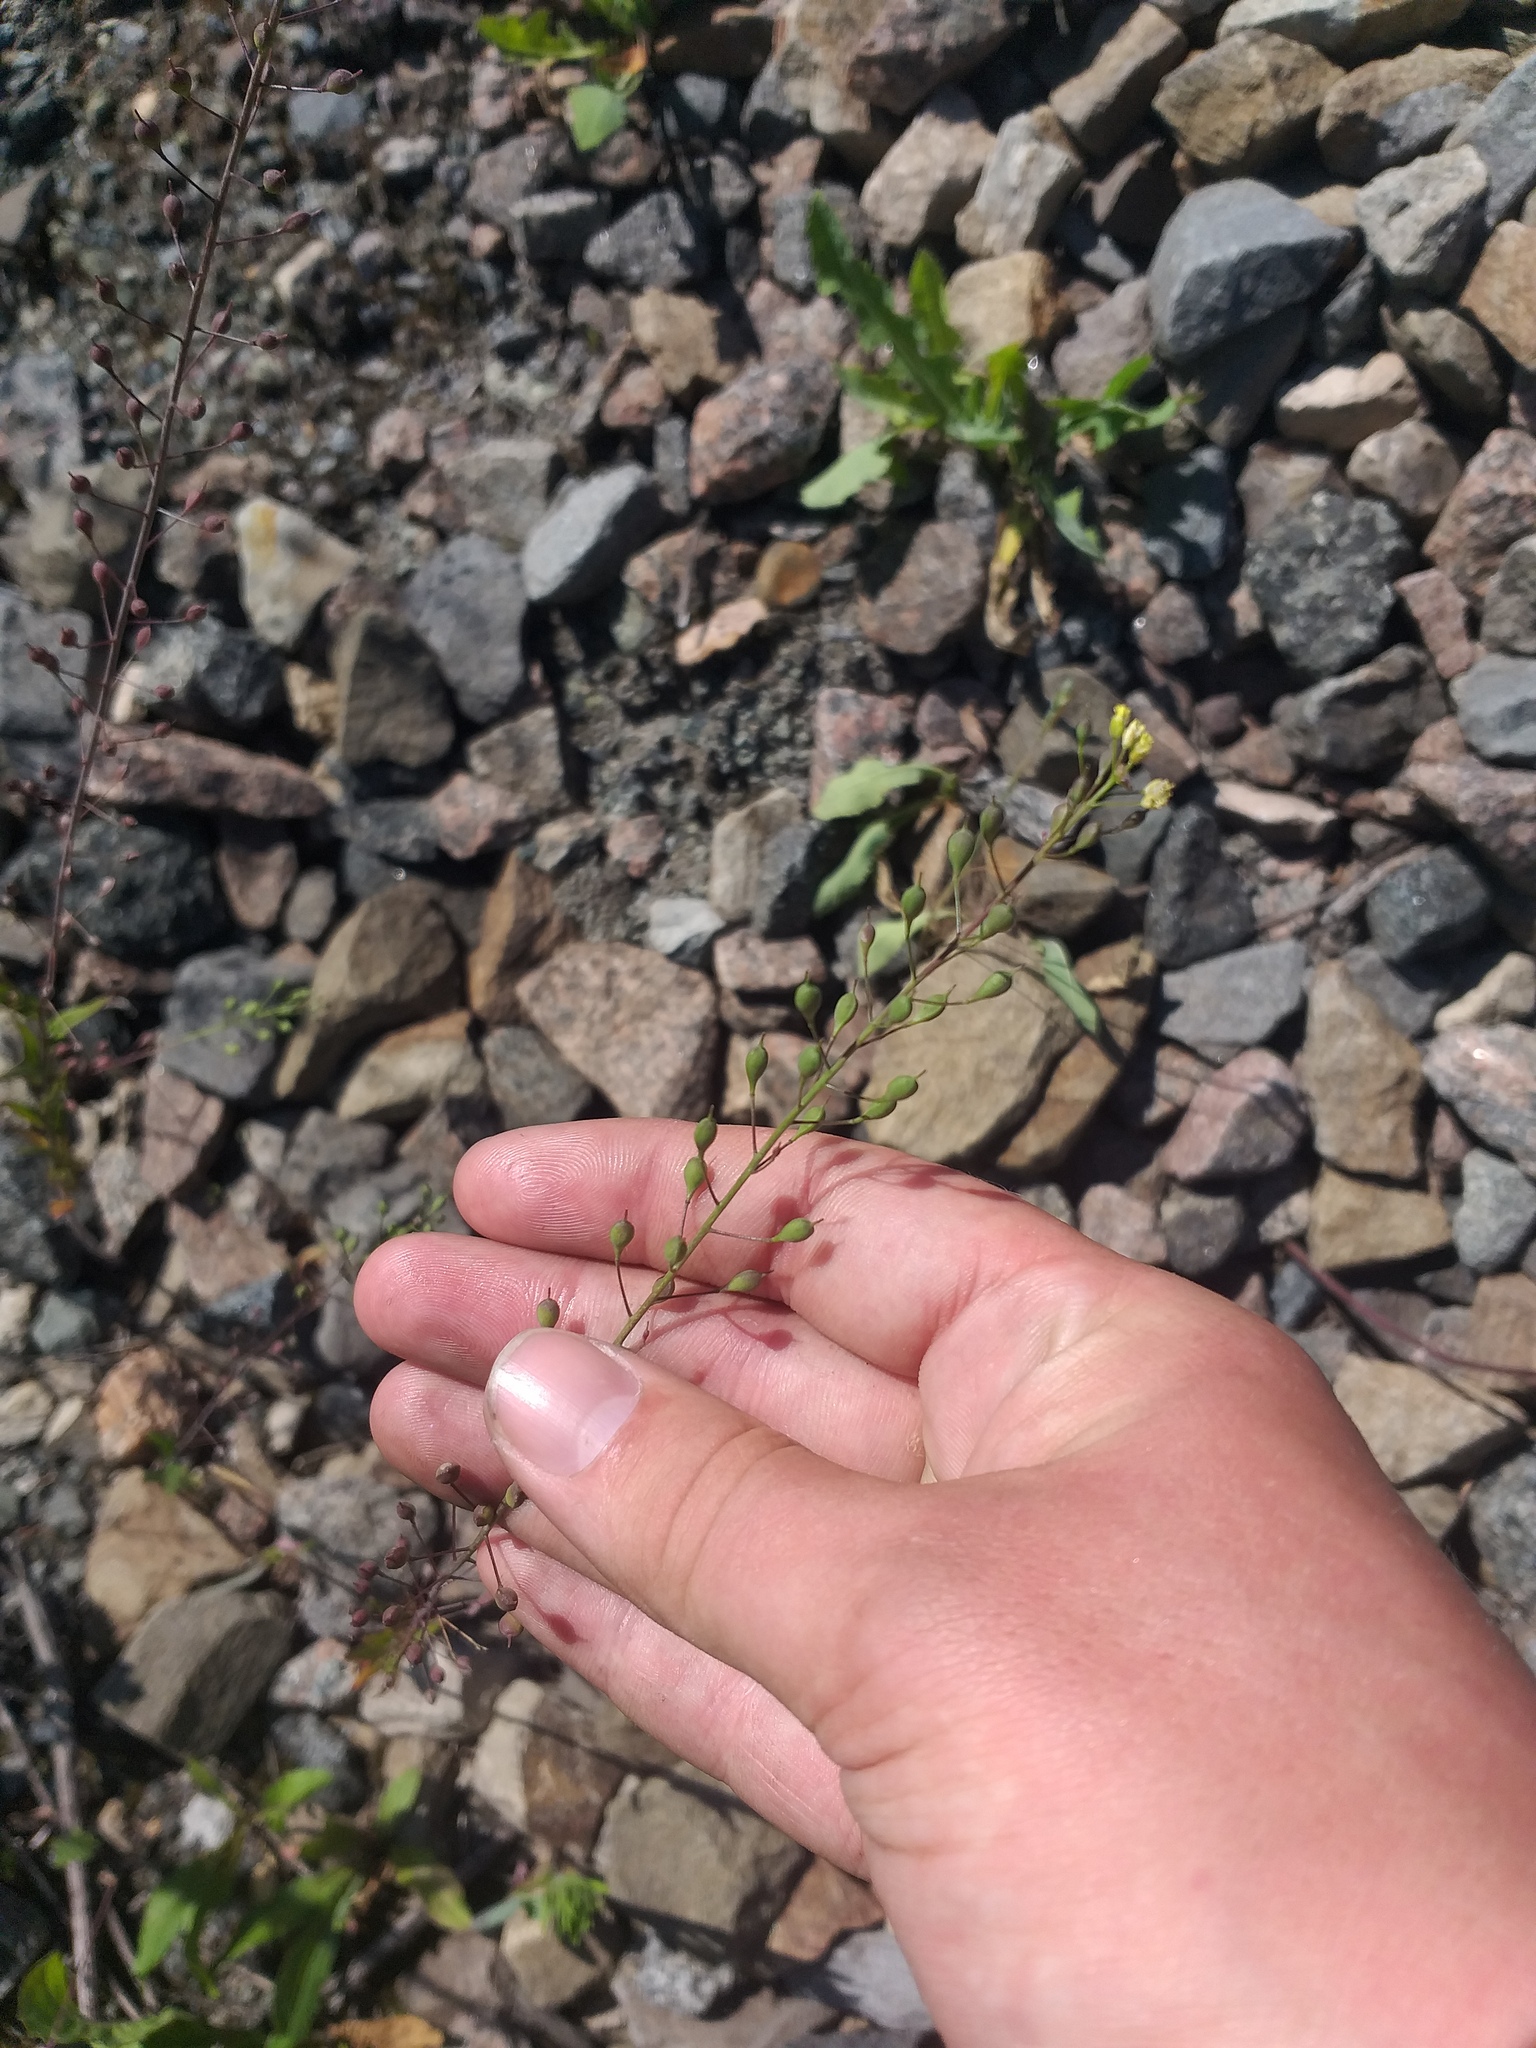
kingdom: Plantae
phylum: Tracheophyta
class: Magnoliopsida
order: Brassicales
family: Brassicaceae
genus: Camelina
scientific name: Camelina microcarpa
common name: Lesser gold-of-pleasure
